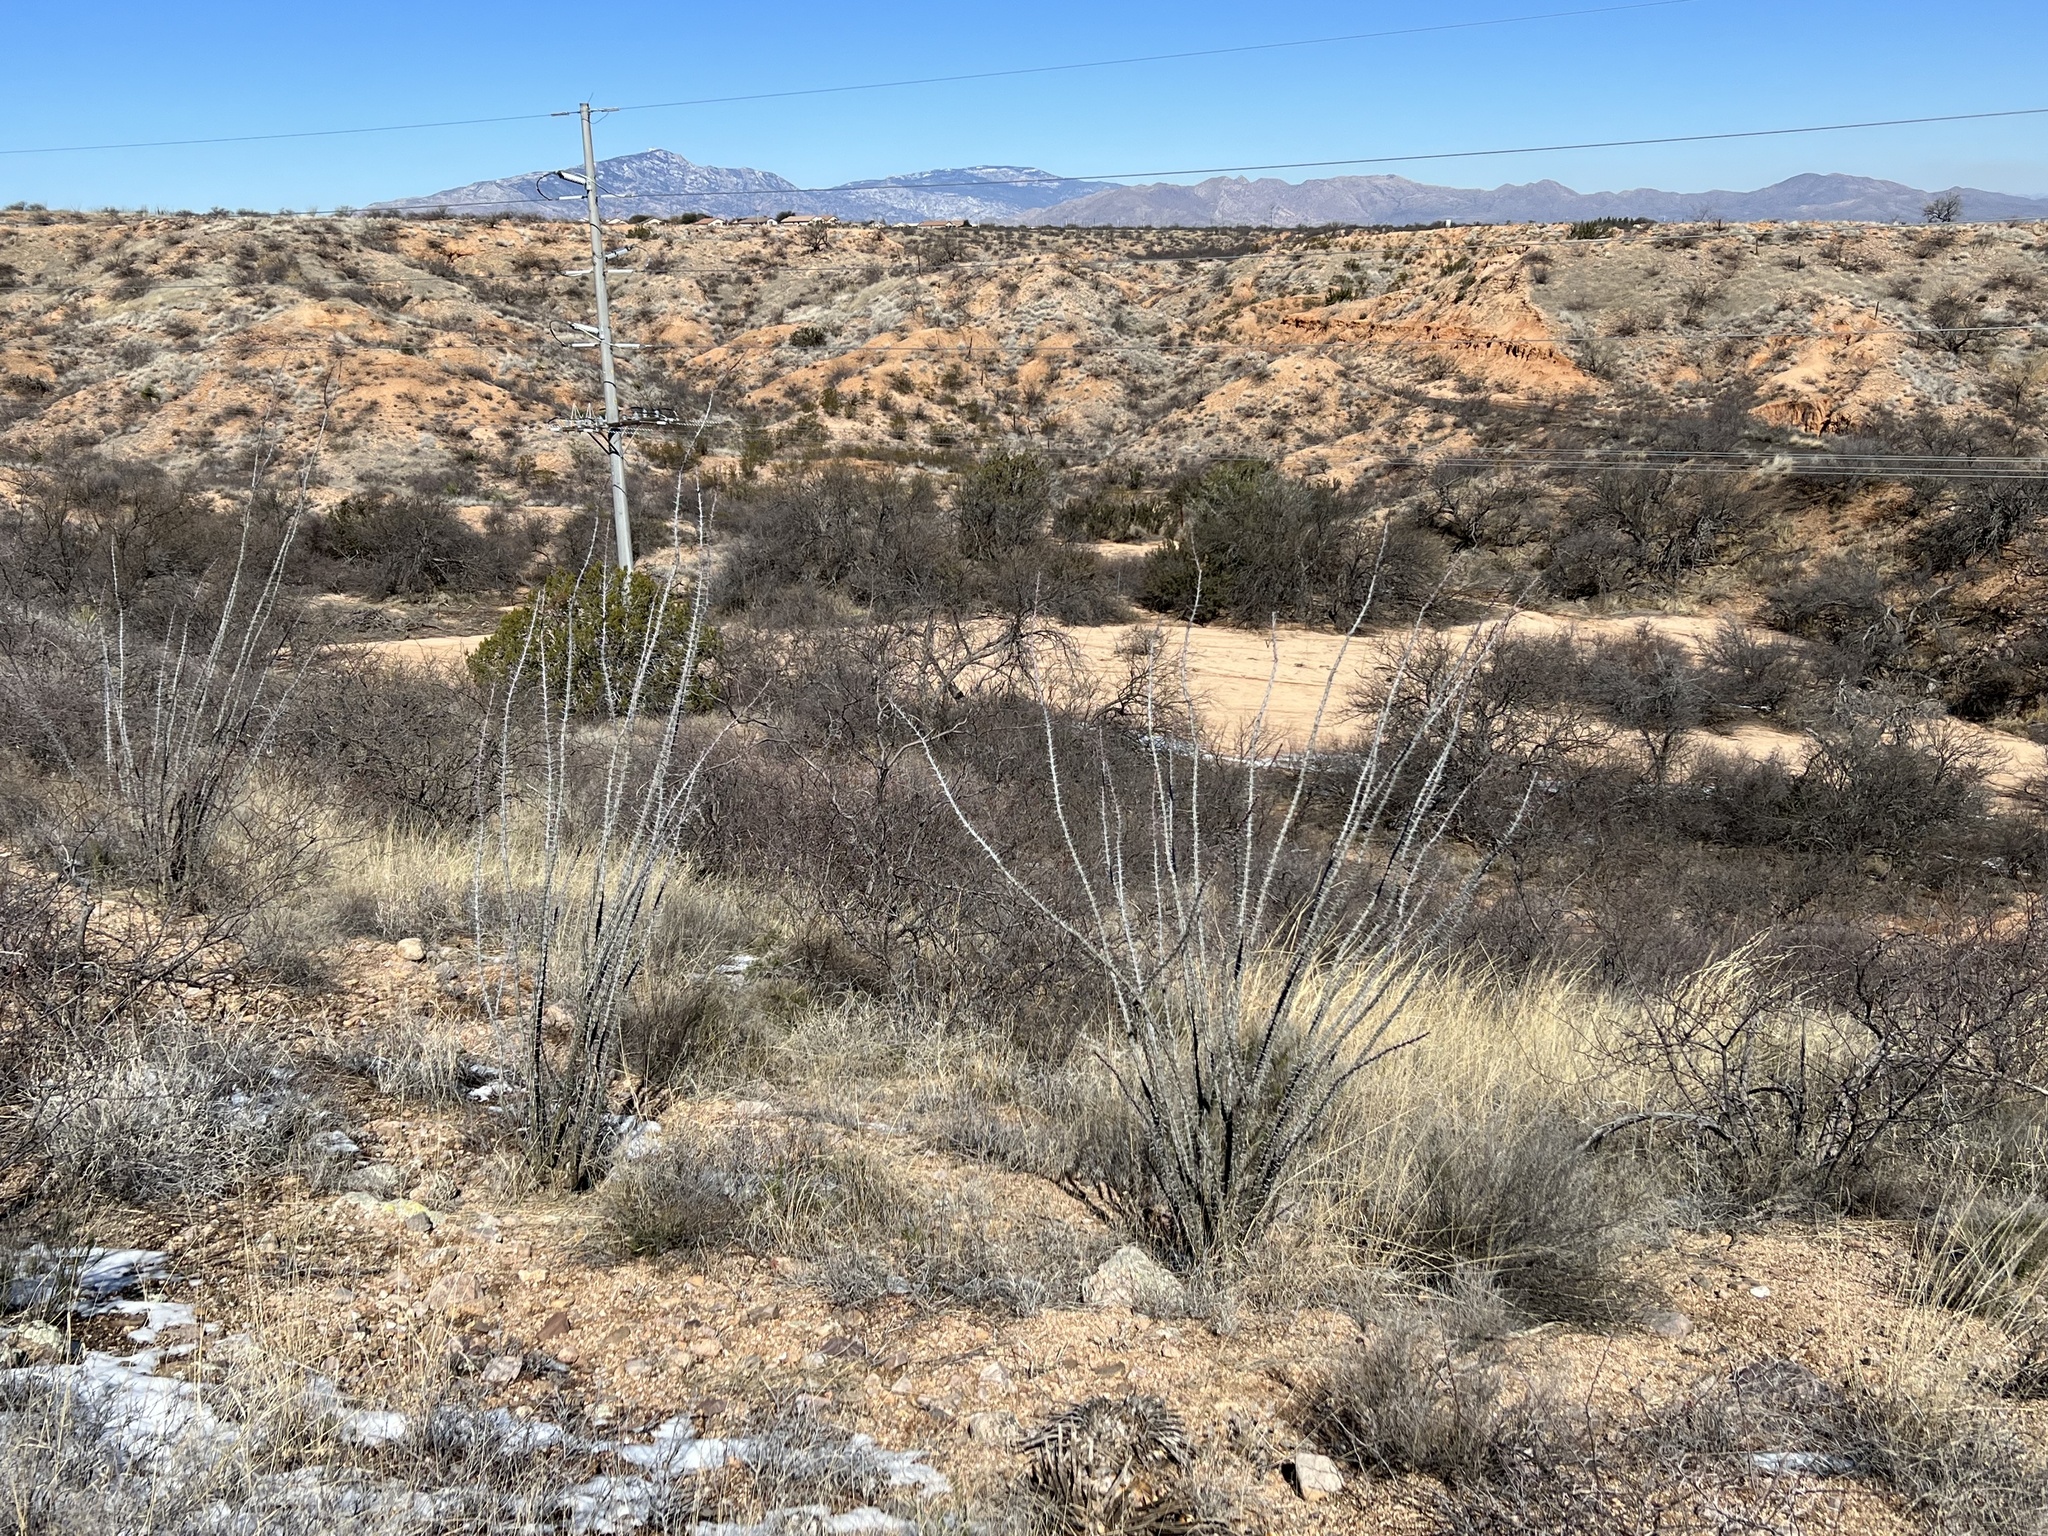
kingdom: Plantae
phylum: Tracheophyta
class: Magnoliopsida
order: Ericales
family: Fouquieriaceae
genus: Fouquieria
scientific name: Fouquieria splendens
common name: Vine-cactus
